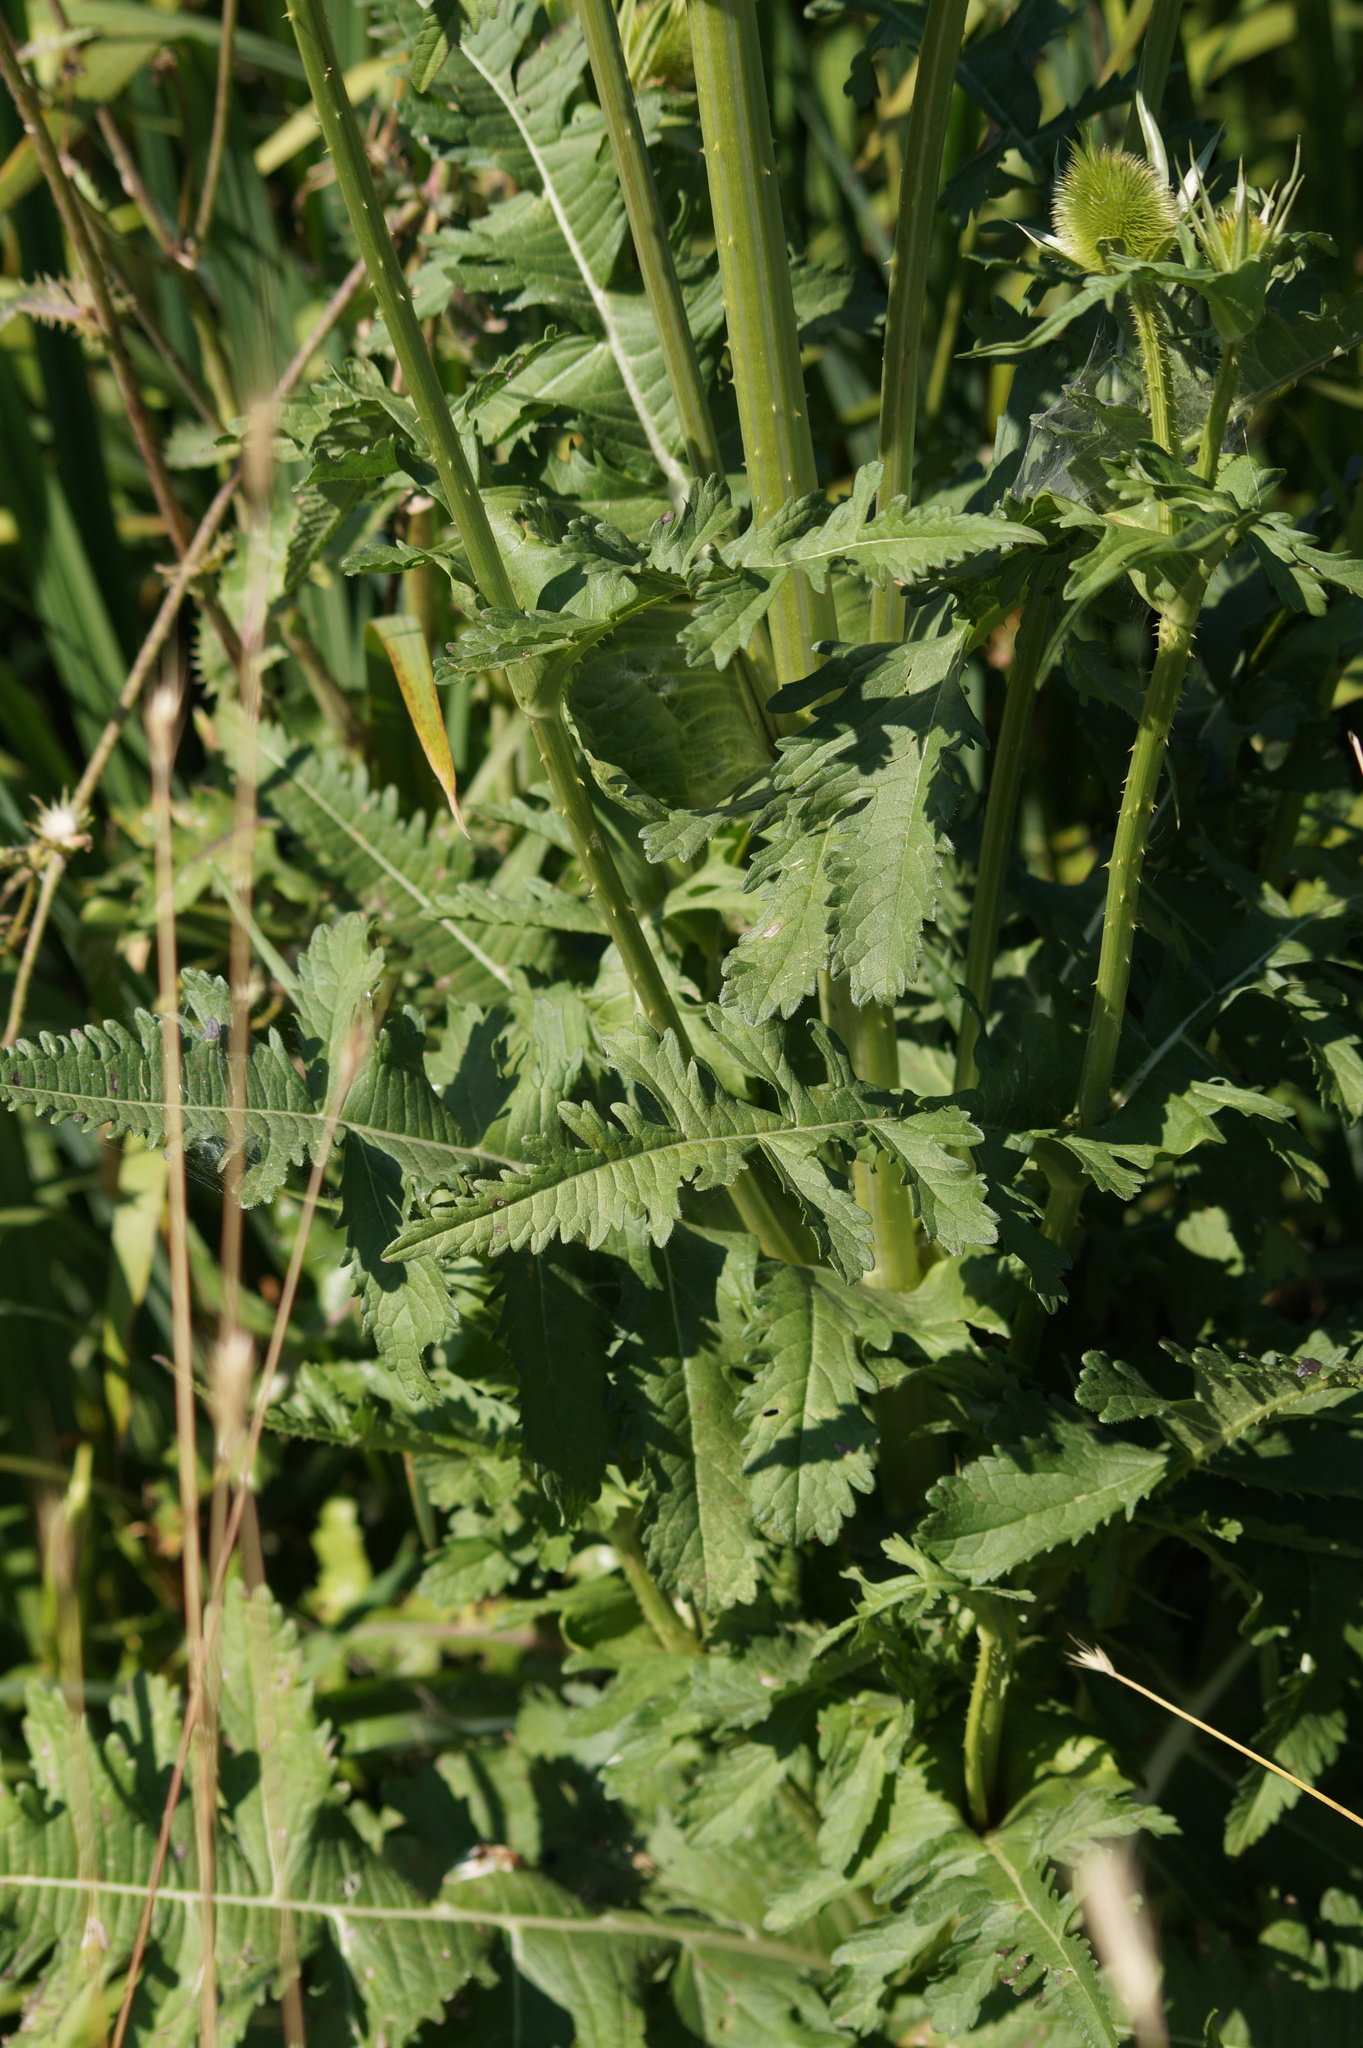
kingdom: Plantae
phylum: Tracheophyta
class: Magnoliopsida
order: Dipsacales
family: Caprifoliaceae
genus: Dipsacus
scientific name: Dipsacus laciniatus
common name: Cut-leaved teasel
